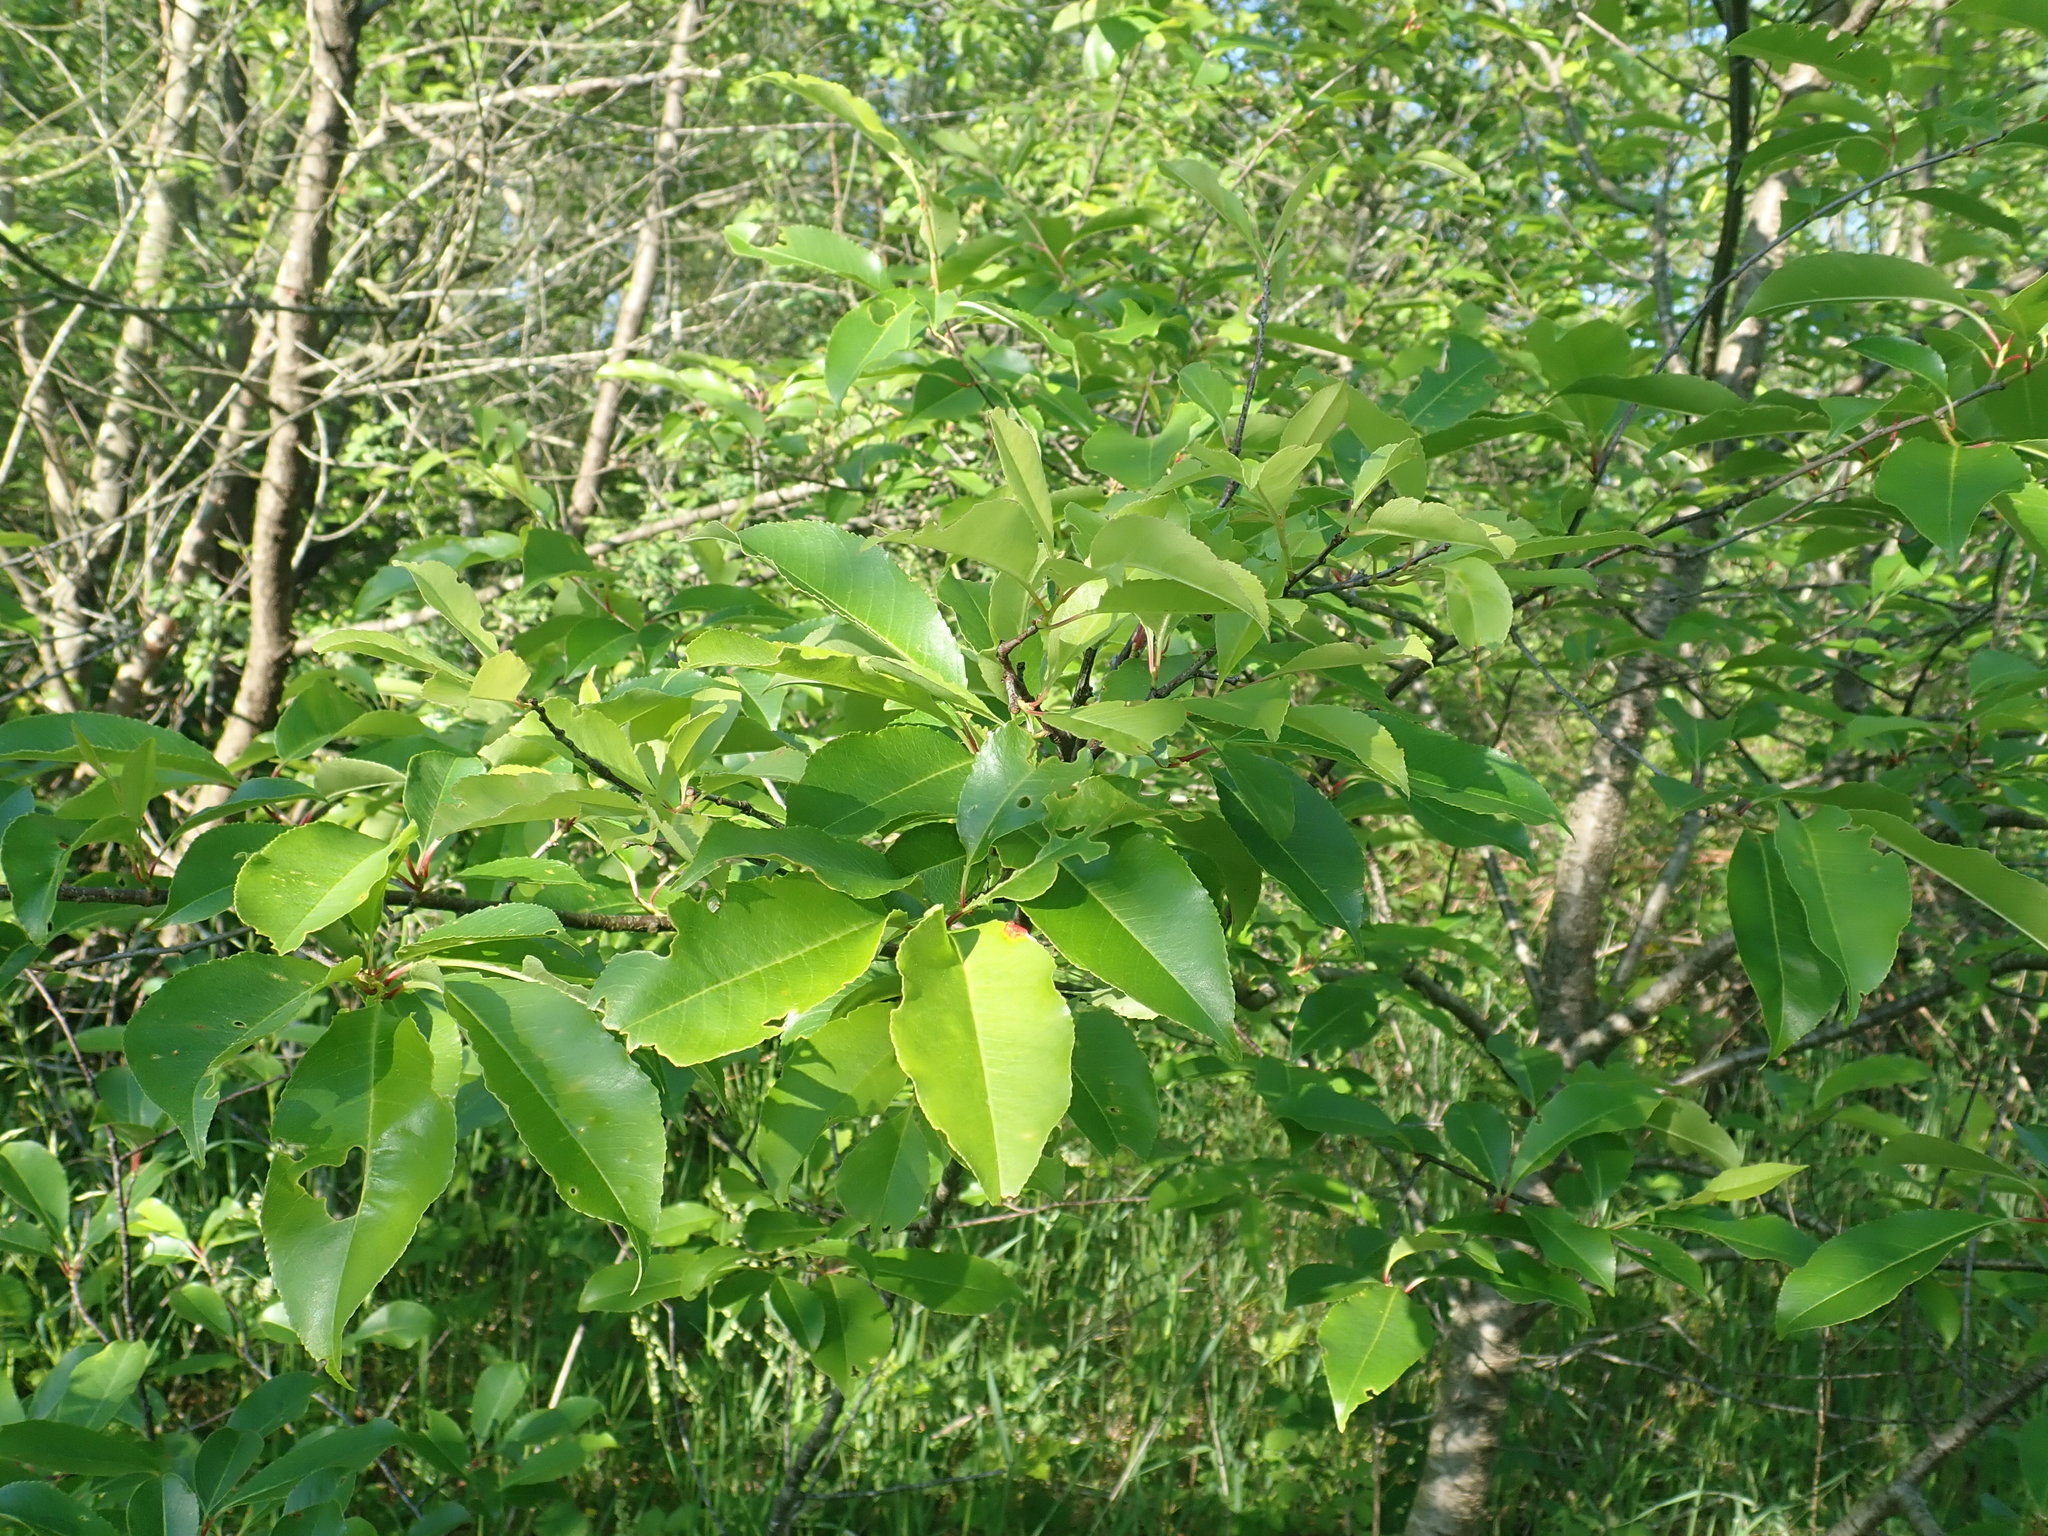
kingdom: Plantae
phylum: Tracheophyta
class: Magnoliopsida
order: Rosales
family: Rosaceae
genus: Prunus
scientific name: Prunus serotina
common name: Black cherry
